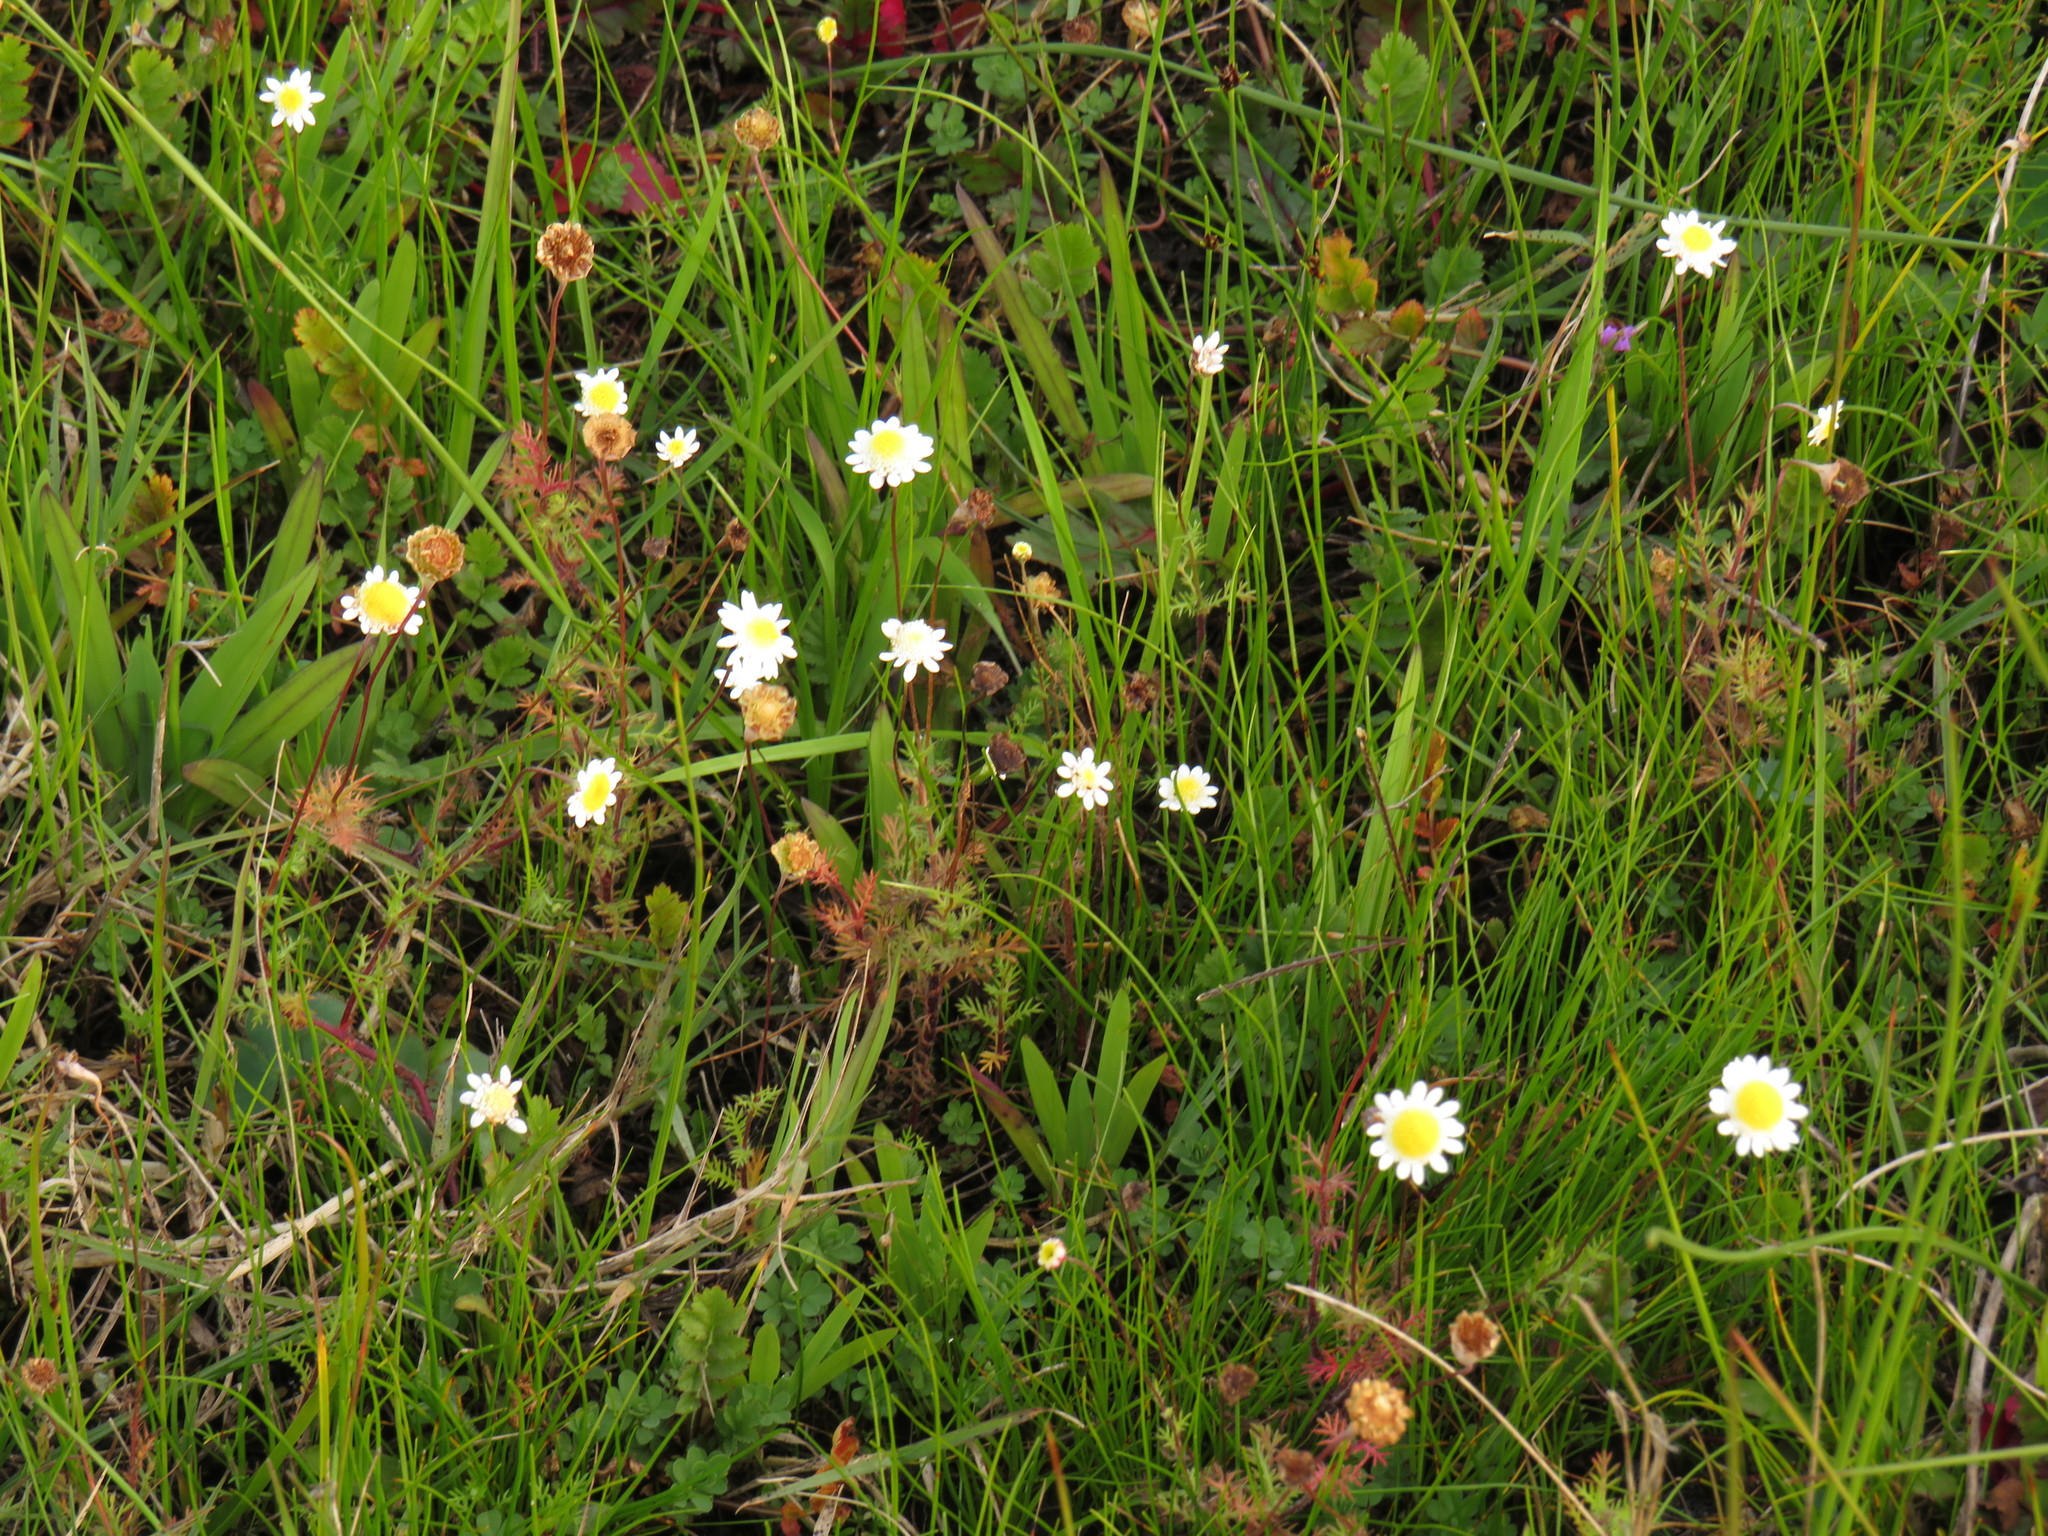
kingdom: Plantae
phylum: Tracheophyta
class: Magnoliopsida
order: Asterales
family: Asteraceae
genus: Cotula
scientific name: Cotula turbinata
